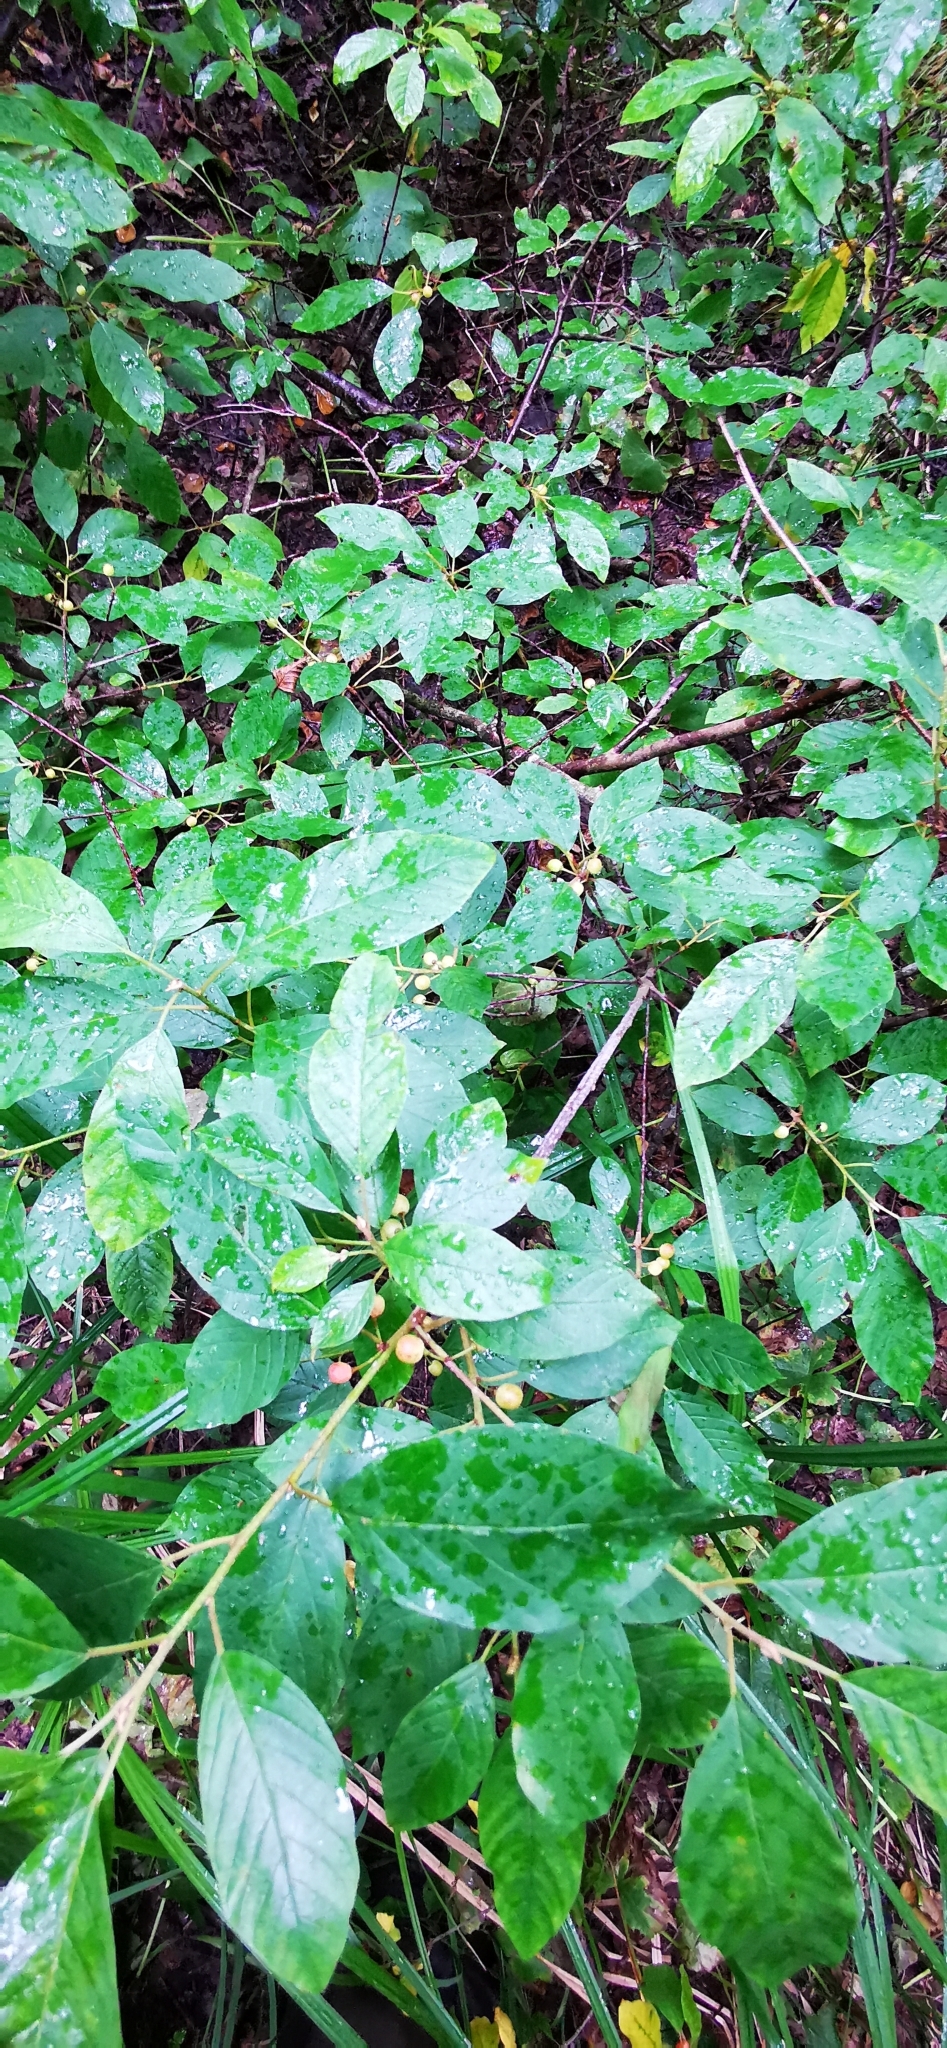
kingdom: Plantae
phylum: Tracheophyta
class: Magnoliopsida
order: Rosales
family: Rhamnaceae
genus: Frangula
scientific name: Frangula alnus
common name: Alder buckthorn
